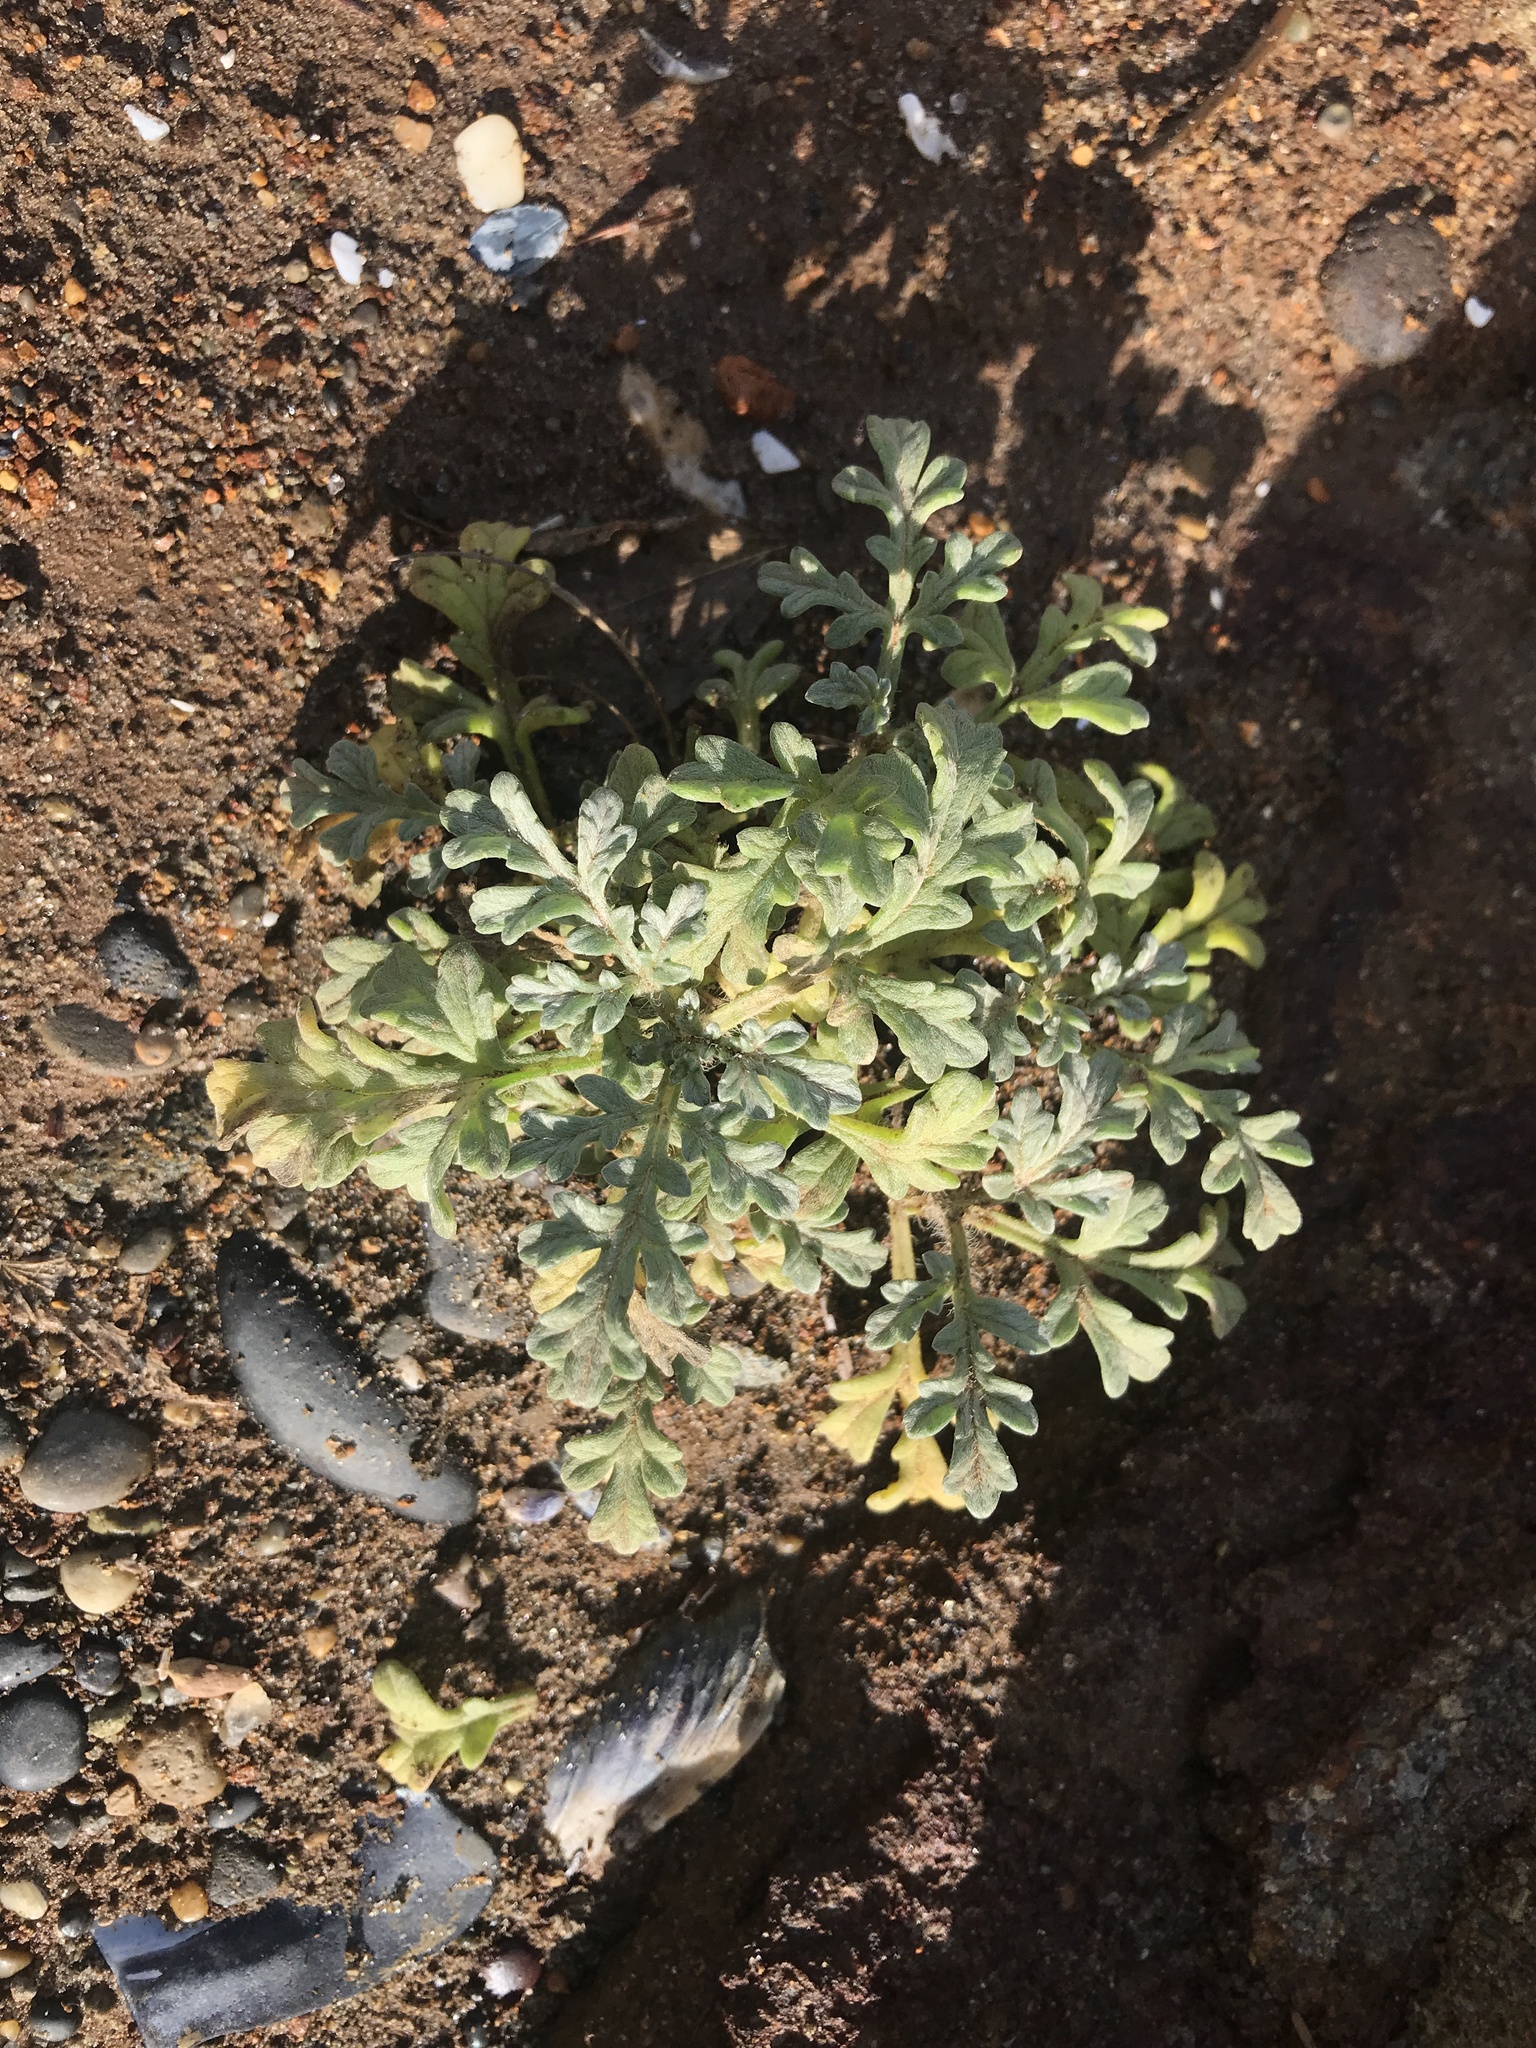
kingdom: Plantae
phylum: Tracheophyta
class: Magnoliopsida
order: Asterales
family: Asteraceae
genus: Ambrosia
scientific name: Ambrosia chamissonis
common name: Beachbur
